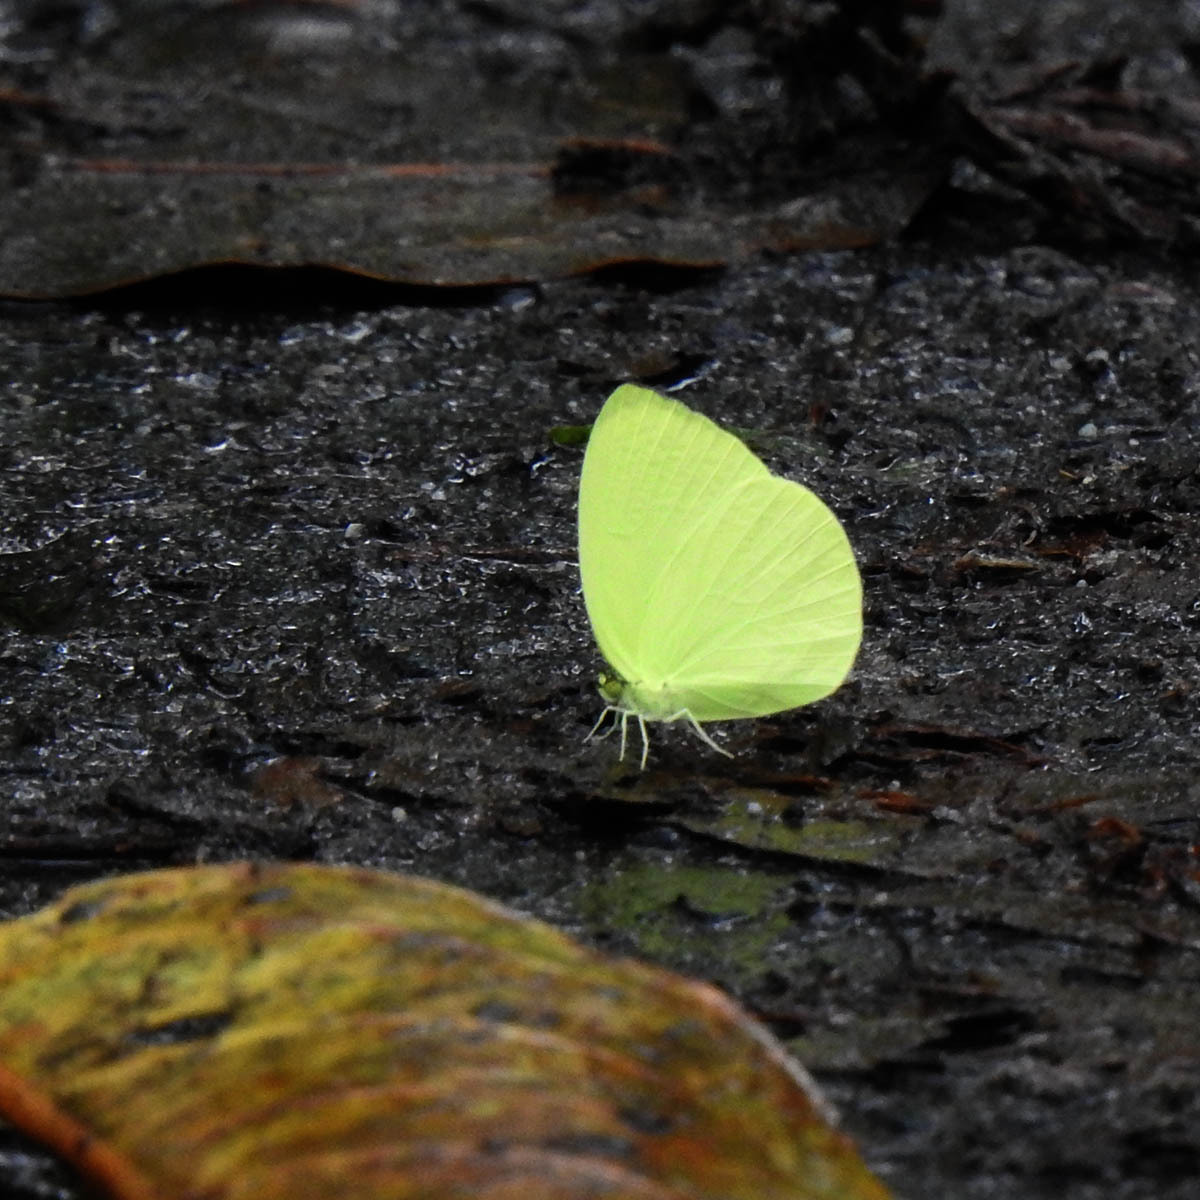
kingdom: Animalia
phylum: Arthropoda
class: Insecta
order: Lepidoptera
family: Pieridae
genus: Gandaca
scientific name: Gandaca harina
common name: Tree yellow
